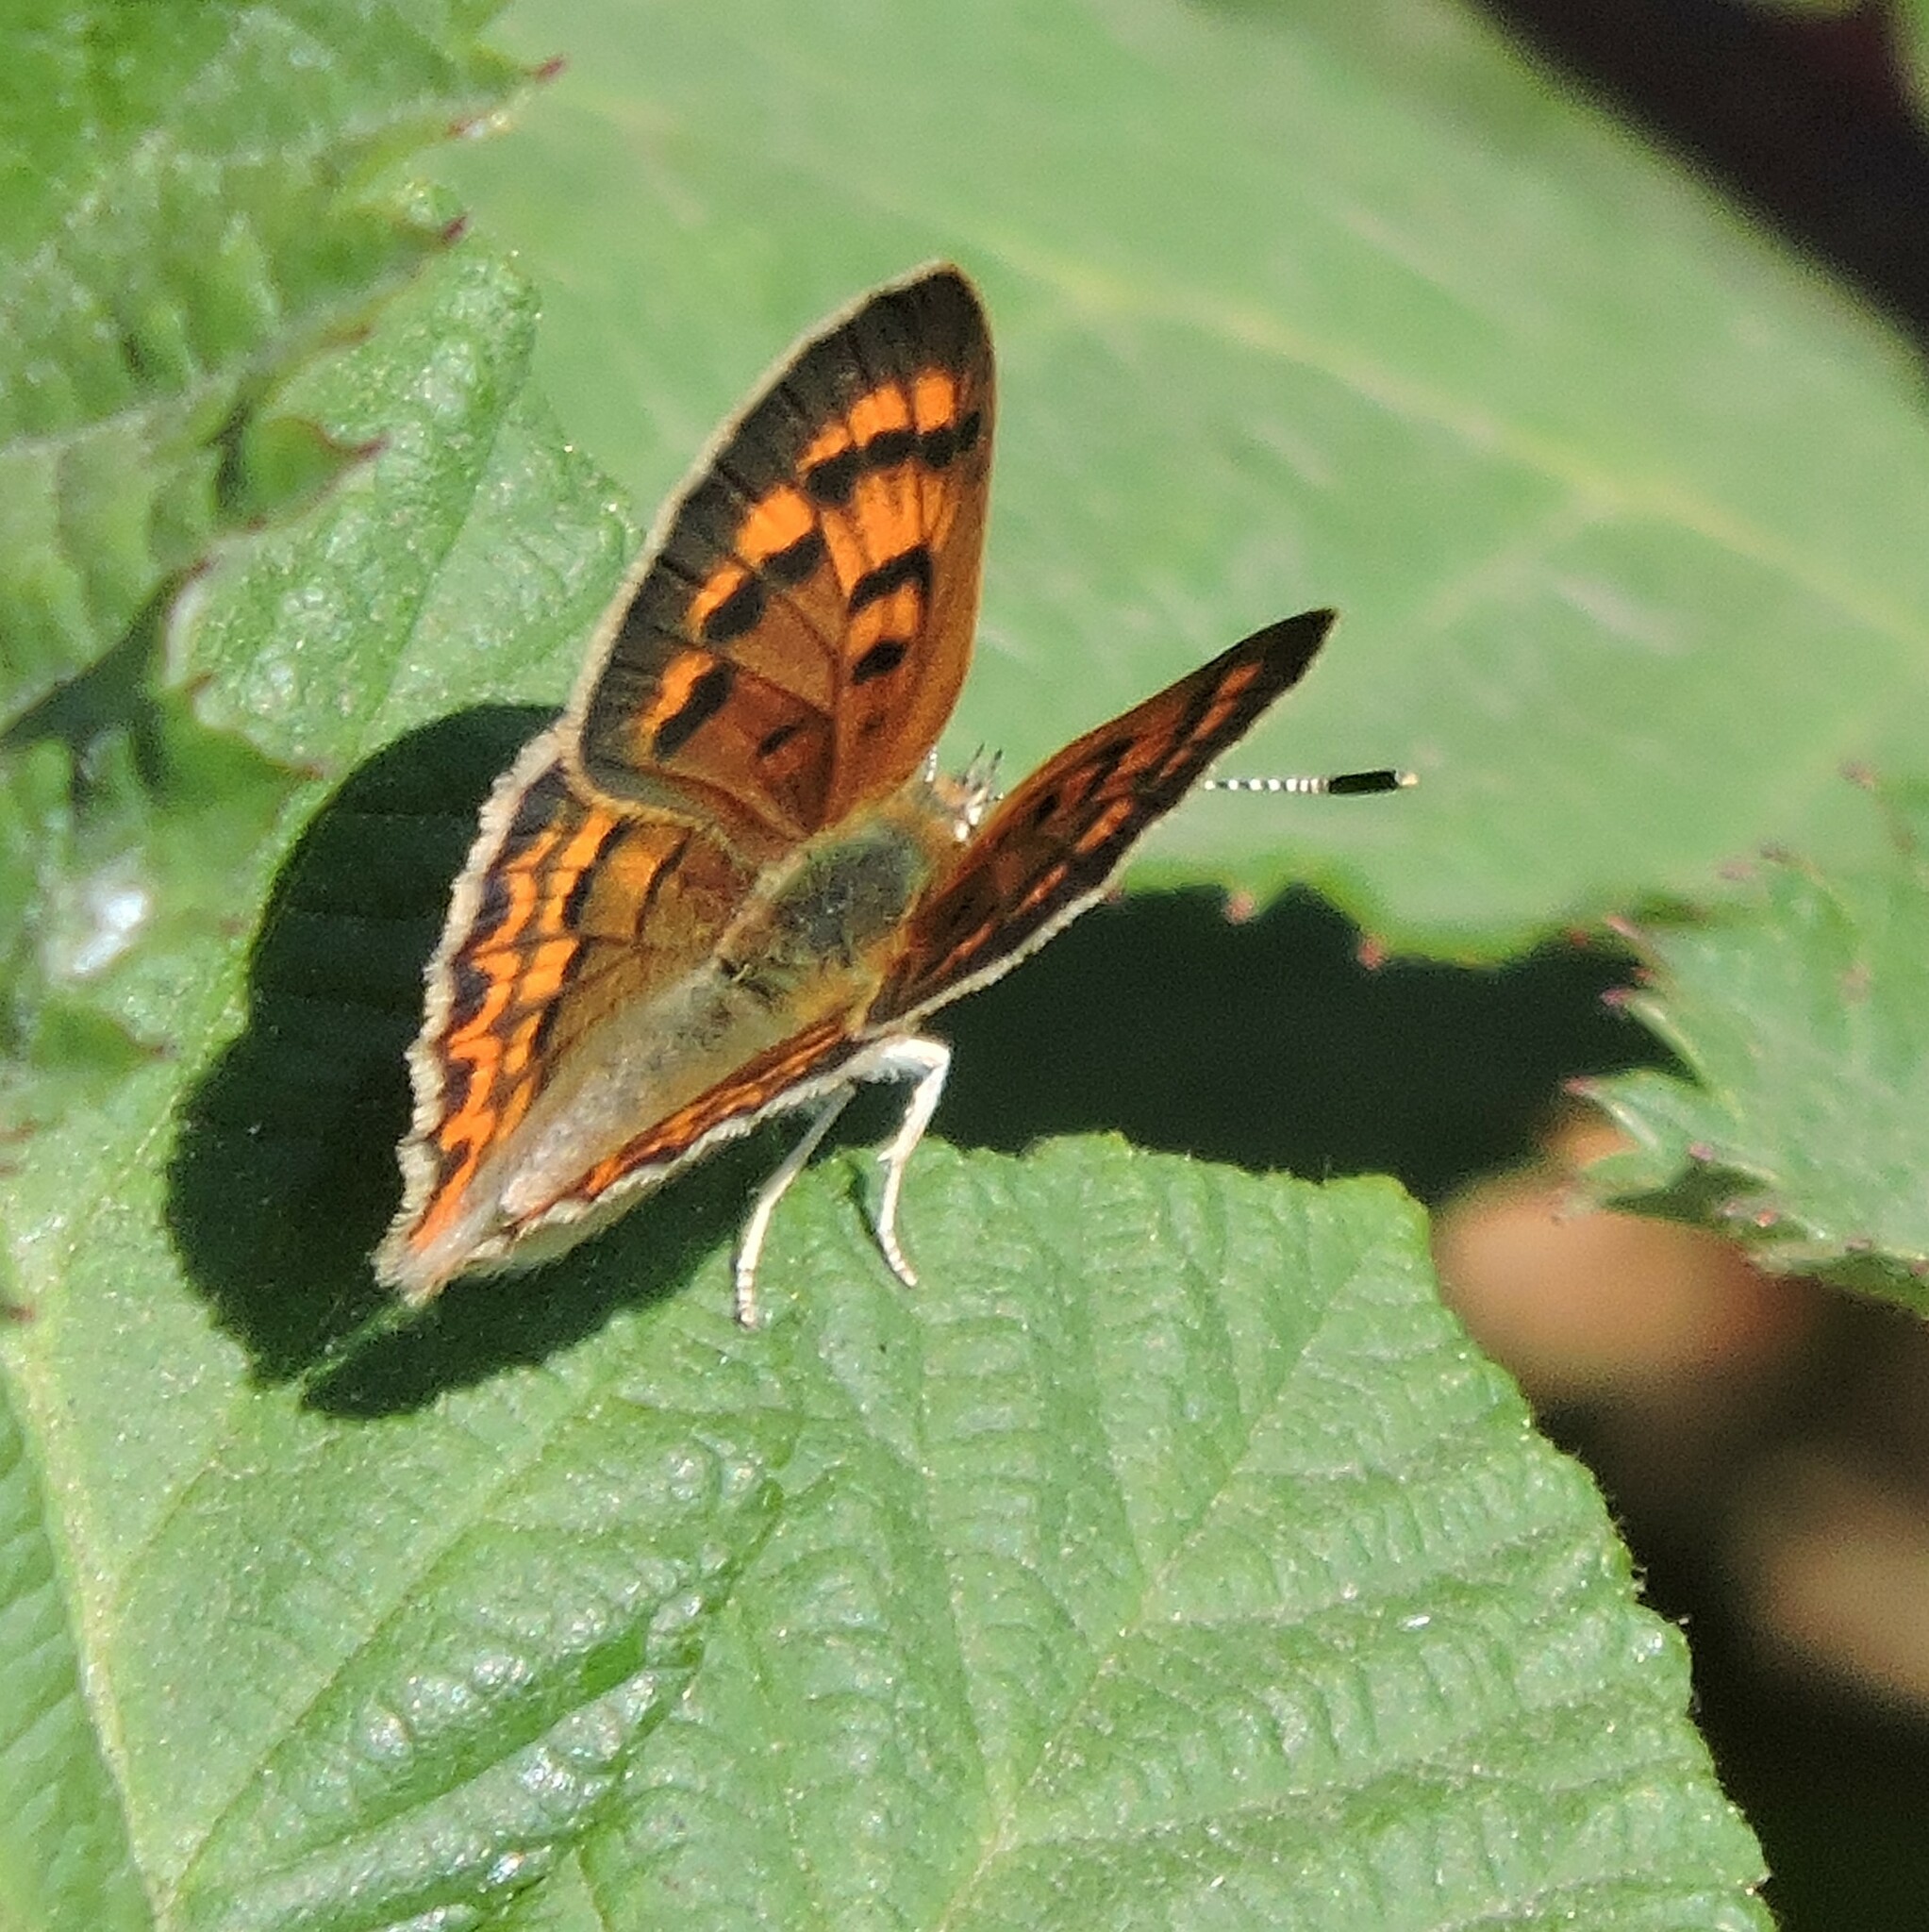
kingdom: Animalia
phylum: Arthropoda
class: Insecta
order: Lepidoptera
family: Lycaenidae
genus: Tharsalea
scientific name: Tharsalea helloides
